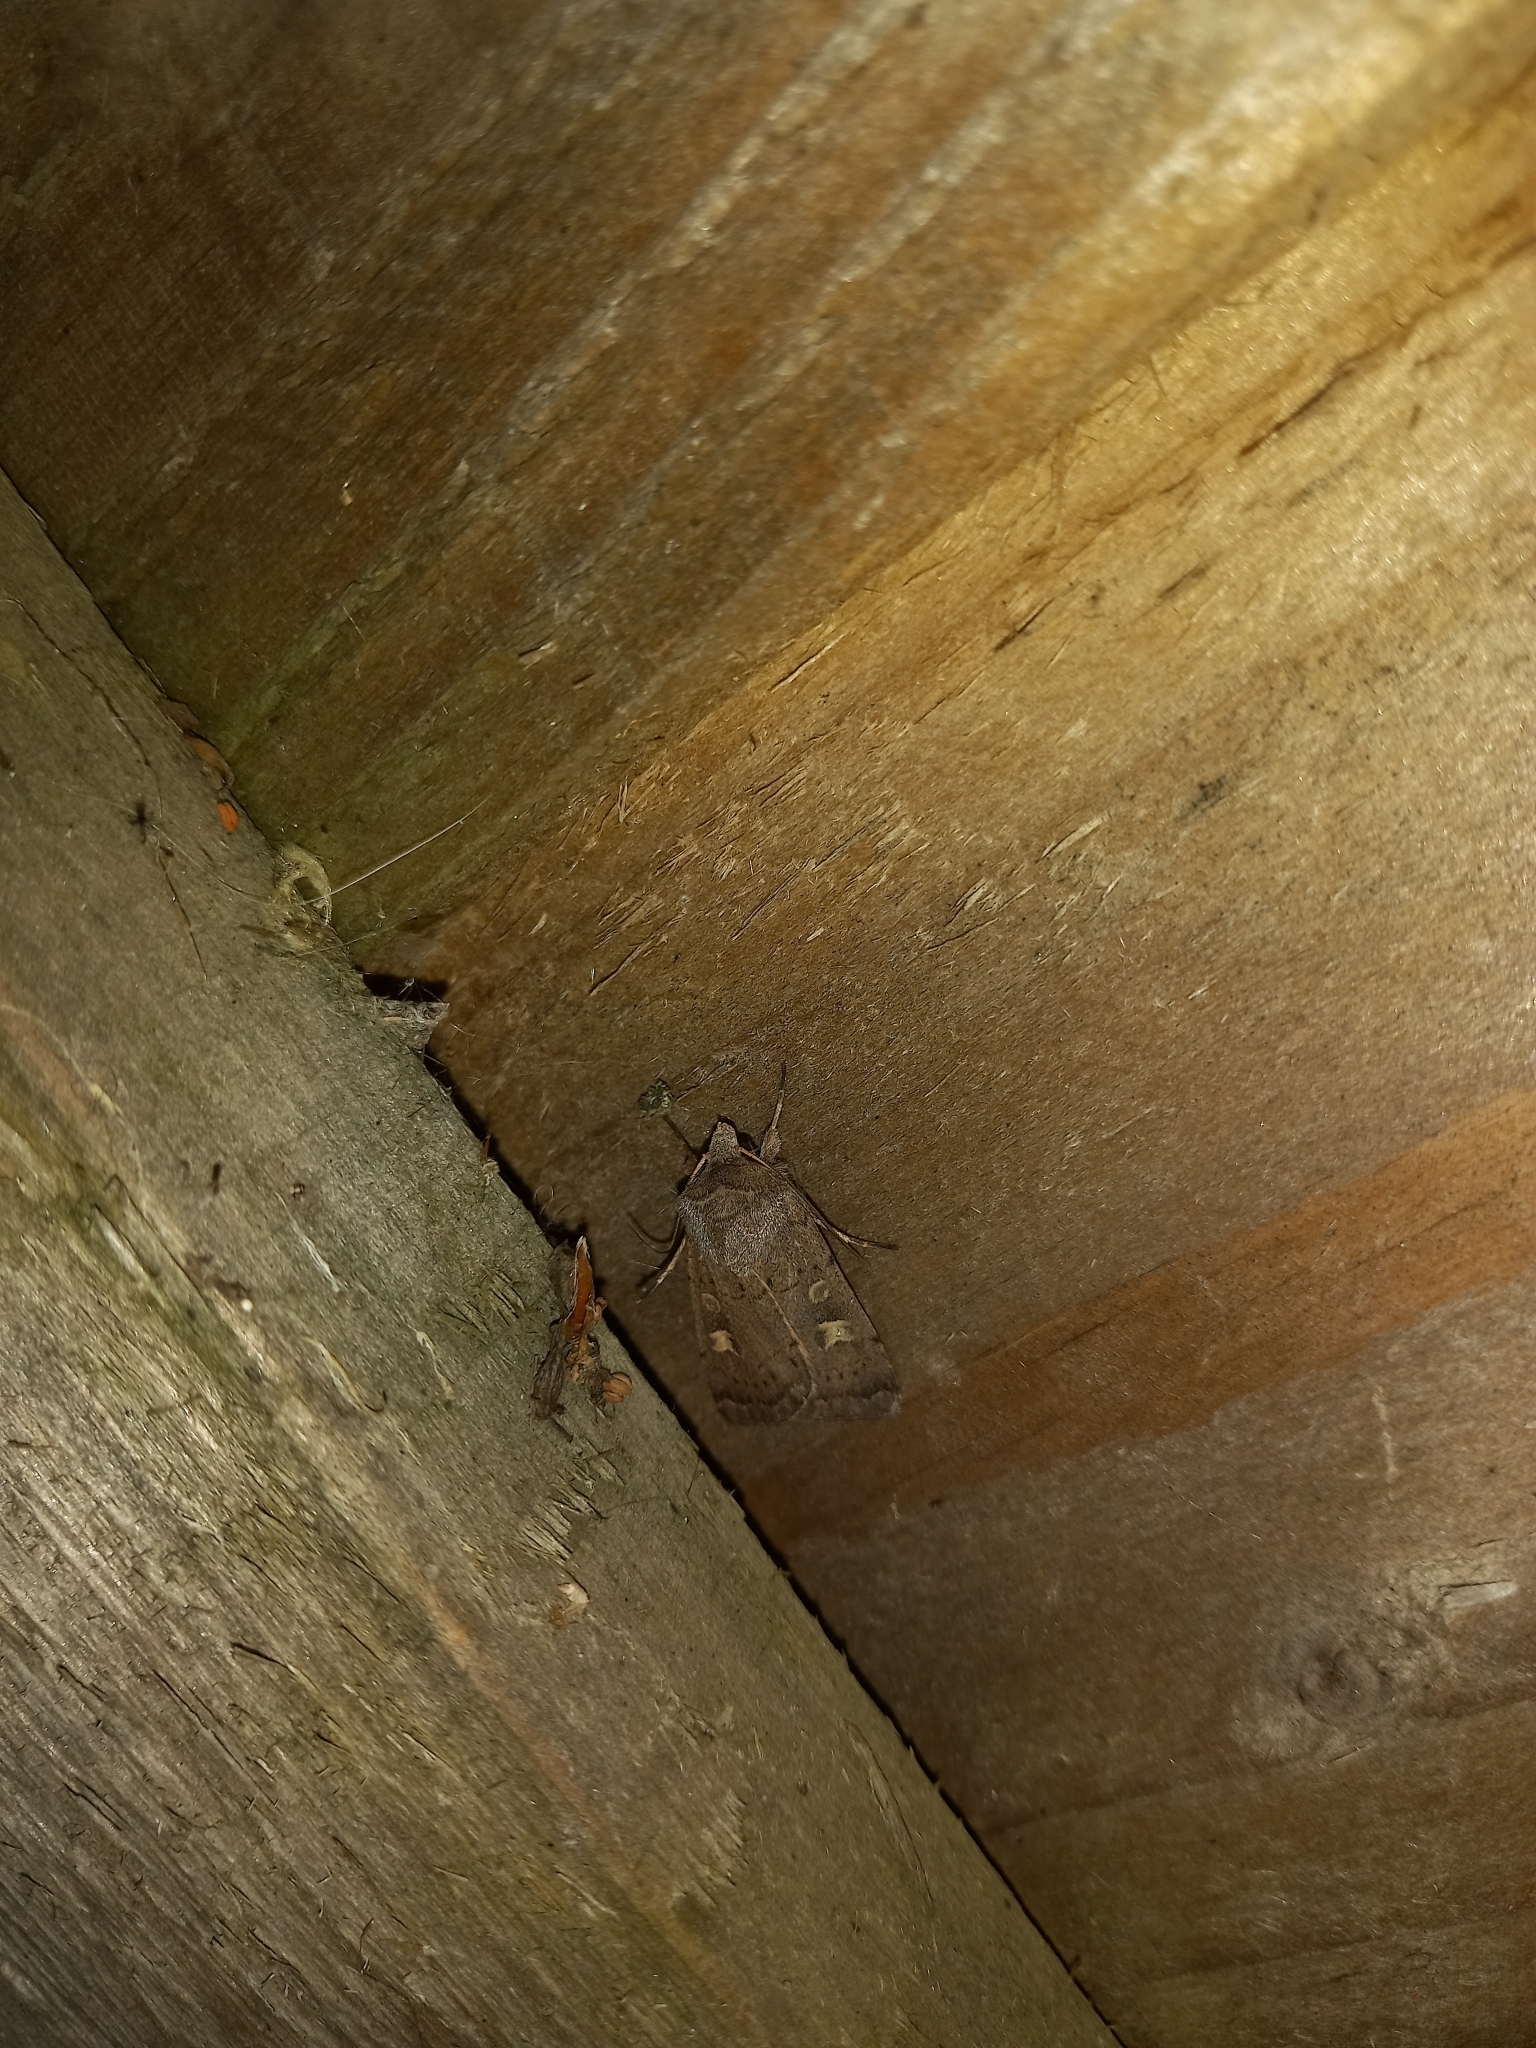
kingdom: Animalia
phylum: Arthropoda
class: Insecta
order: Lepidoptera
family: Noctuidae
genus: Xestia
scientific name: Xestia xanthographa
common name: Square-spot rustic
